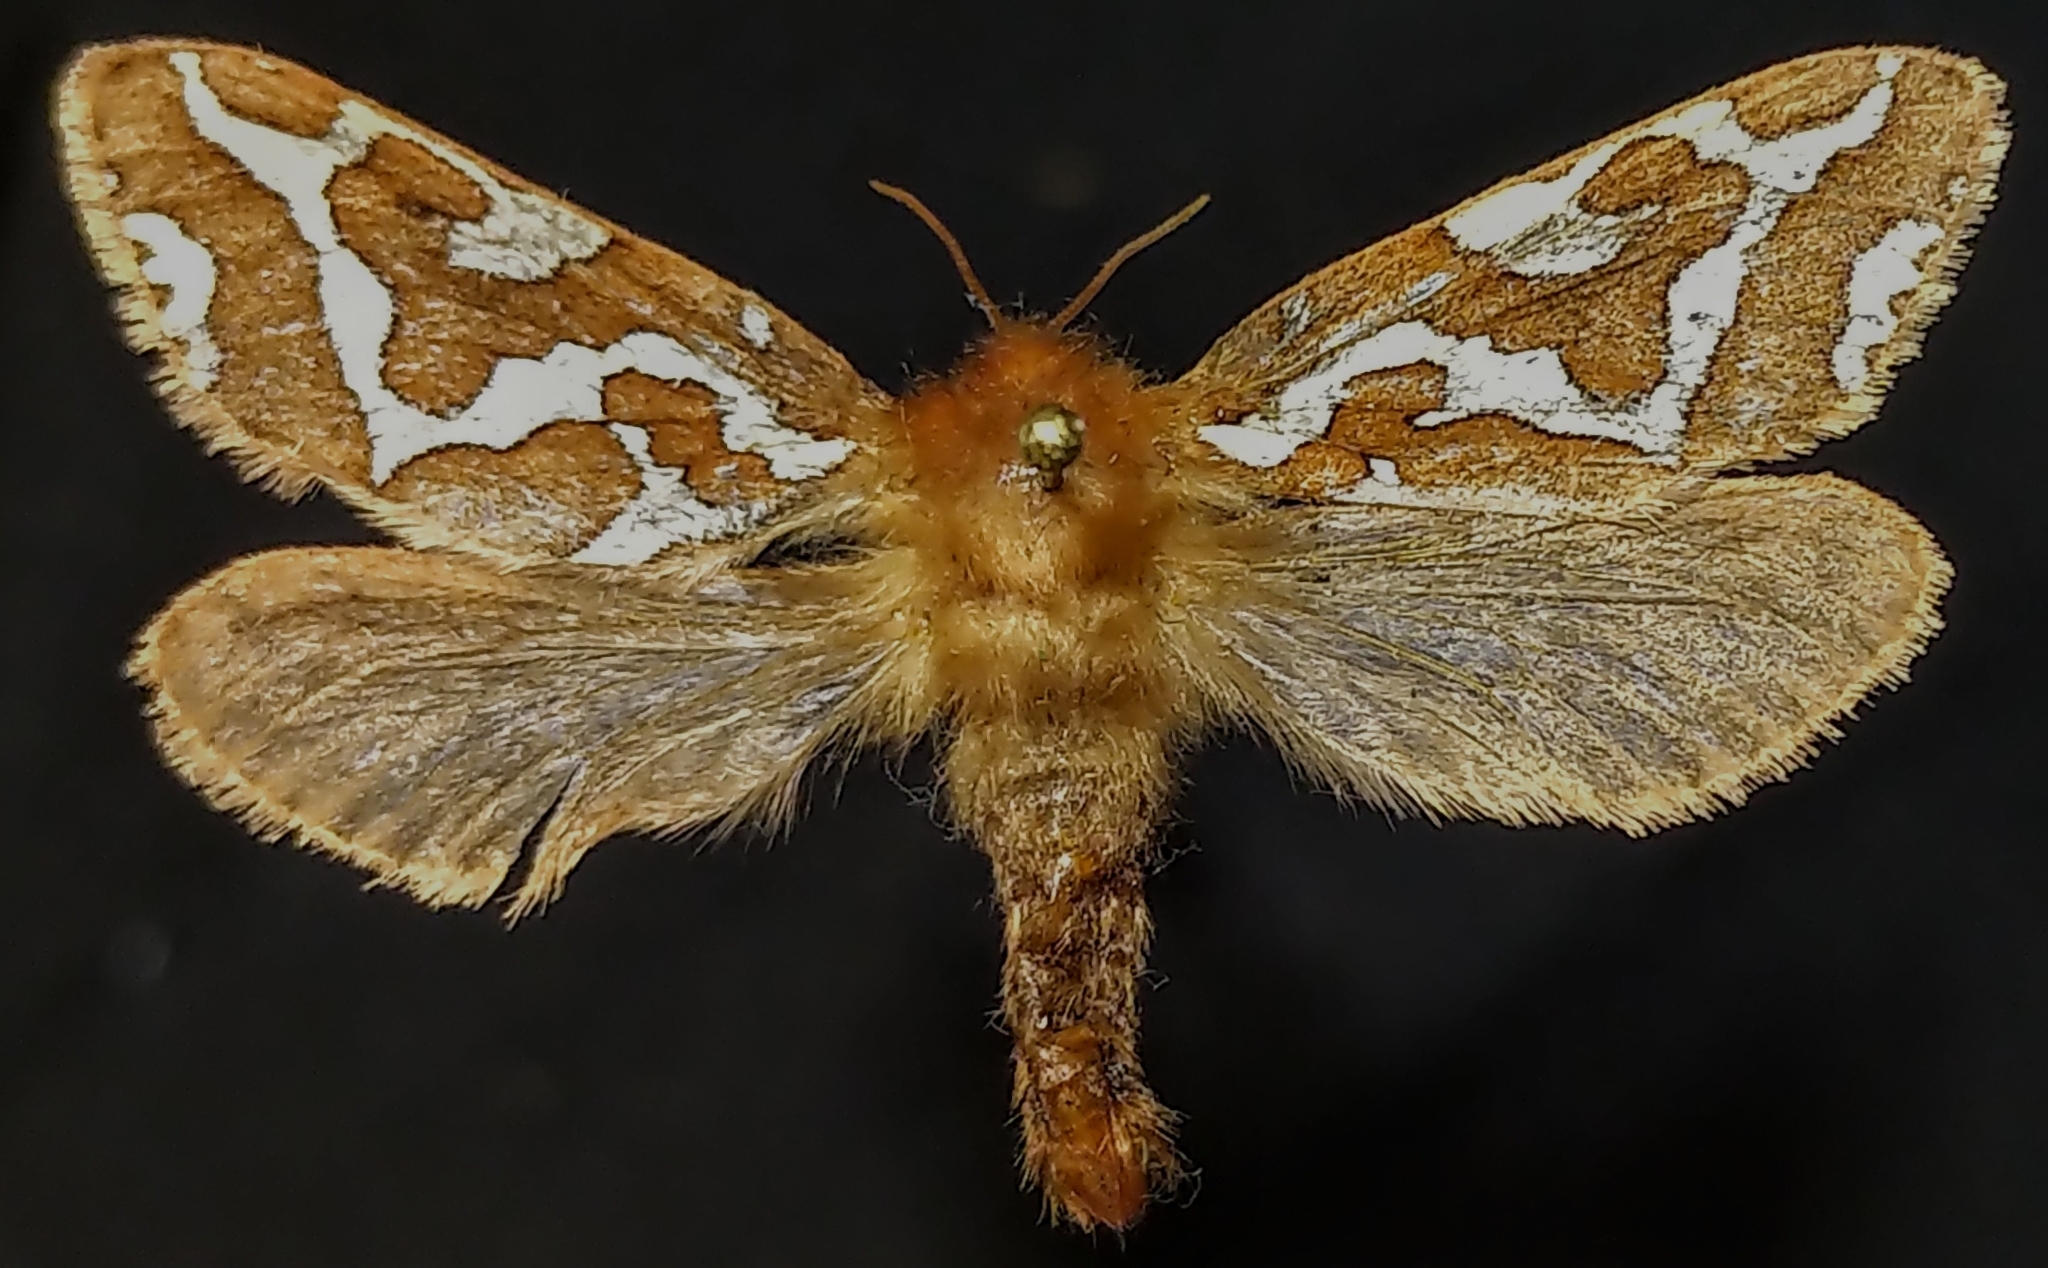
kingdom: Animalia
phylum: Arthropoda
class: Insecta
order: Lepidoptera
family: Hepialidae
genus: Gazoryctra
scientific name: Gazoryctra hyperboreus
